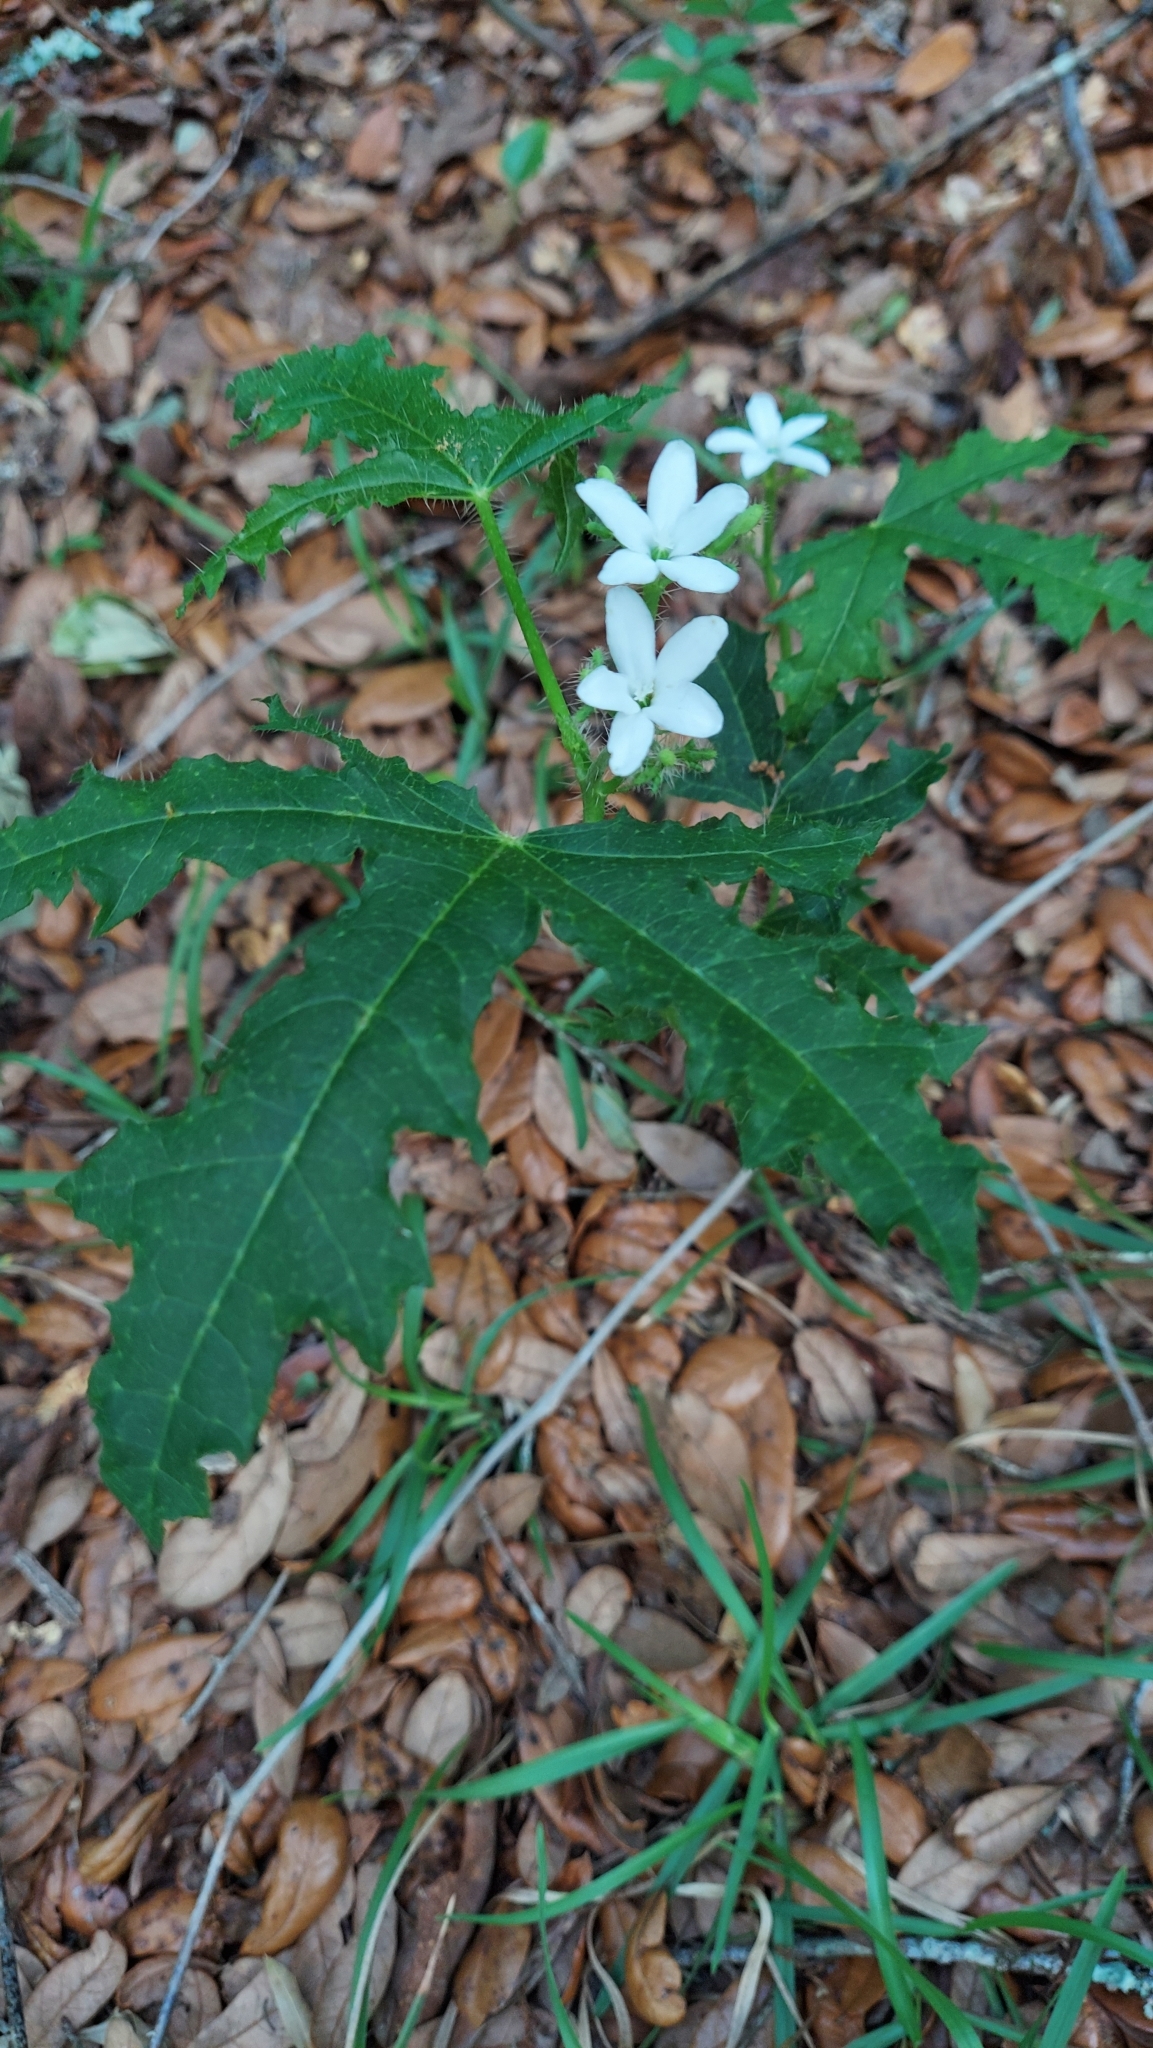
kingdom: Plantae
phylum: Tracheophyta
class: Magnoliopsida
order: Malpighiales
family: Euphorbiaceae
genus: Cnidoscolus
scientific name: Cnidoscolus stimulosus
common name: Bull-nettle
